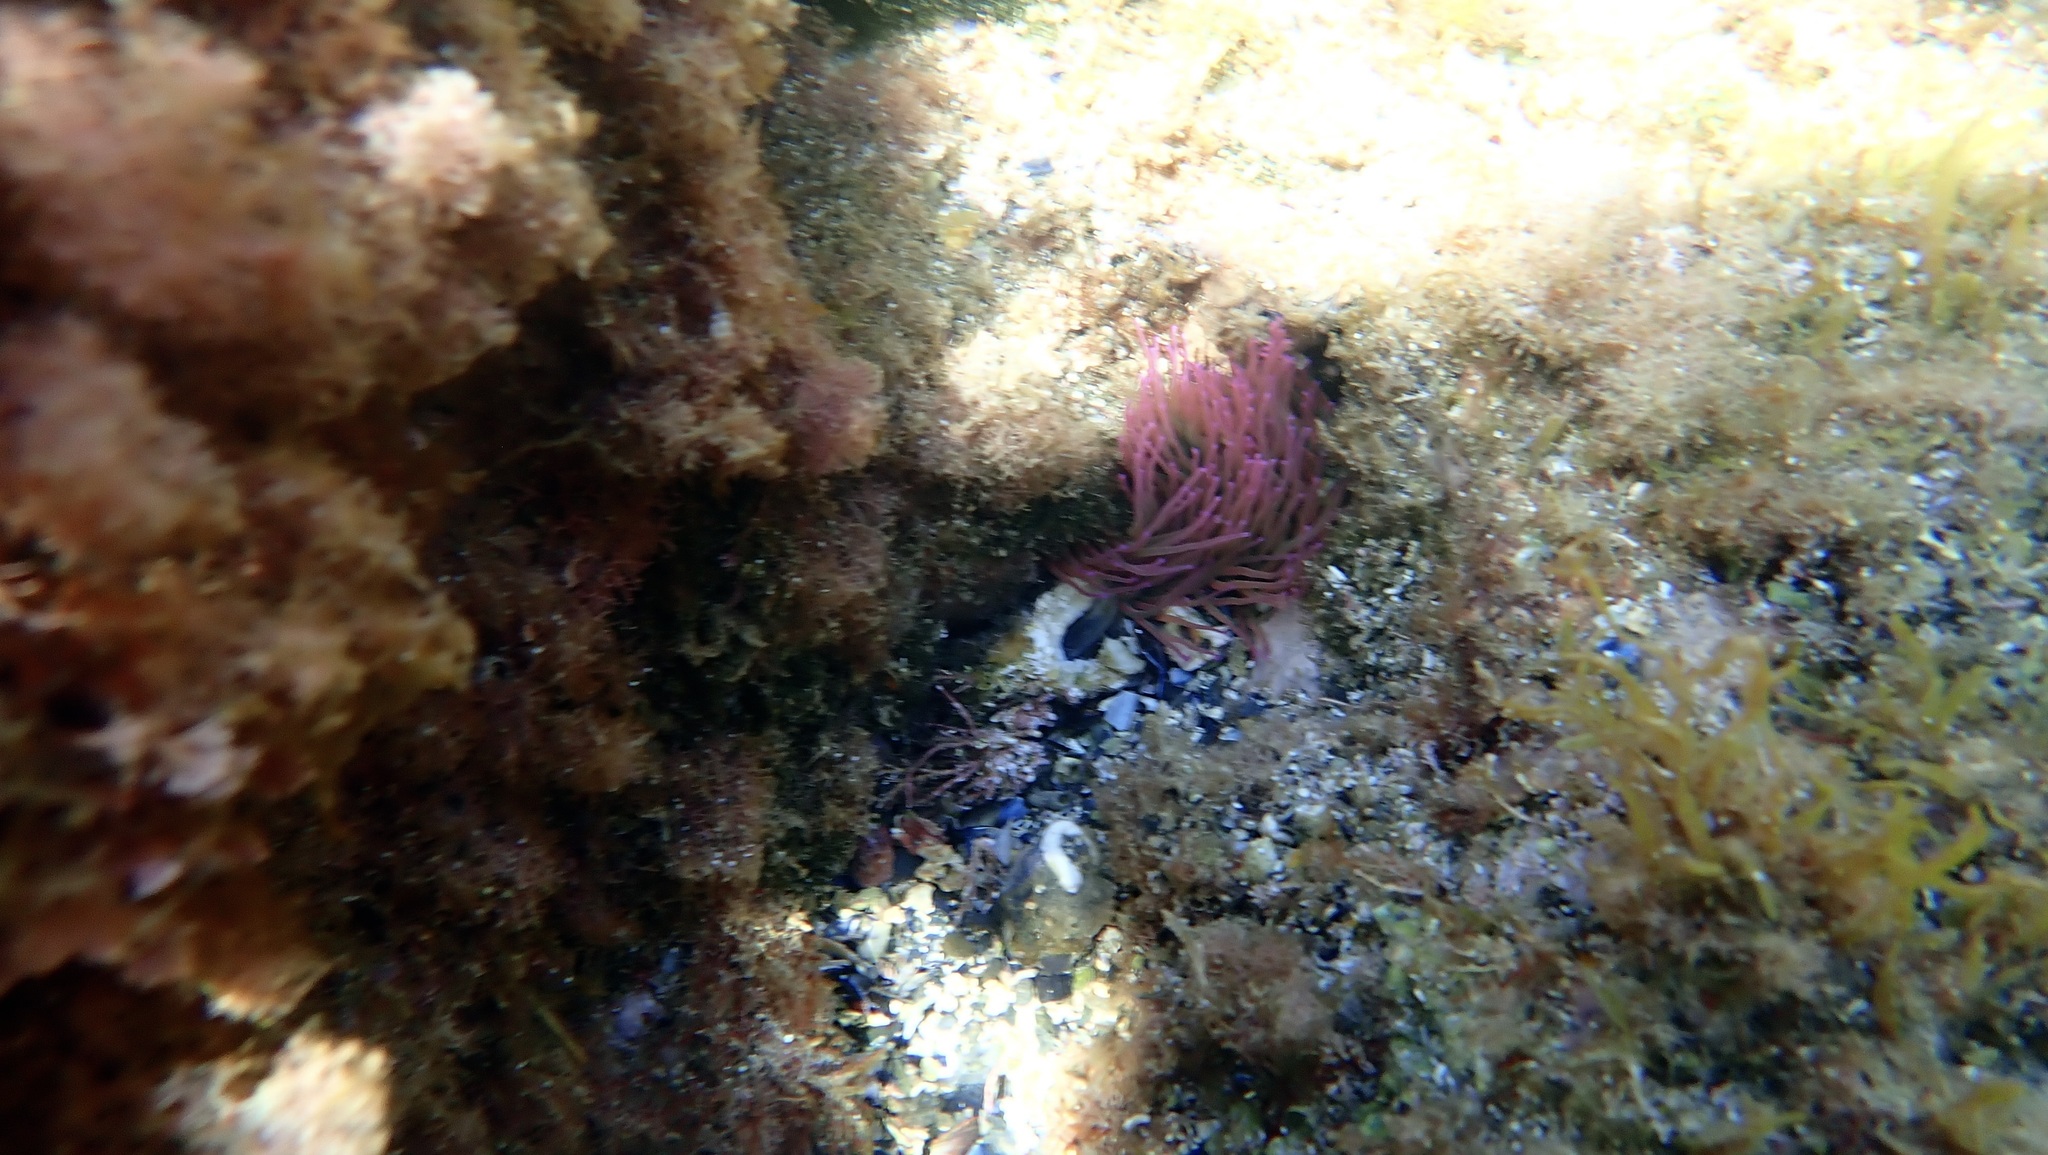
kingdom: Animalia
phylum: Cnidaria
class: Anthozoa
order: Actiniaria
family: Actiniidae
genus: Anemonia
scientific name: Anemonia viridis
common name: Snakelocks anemone
